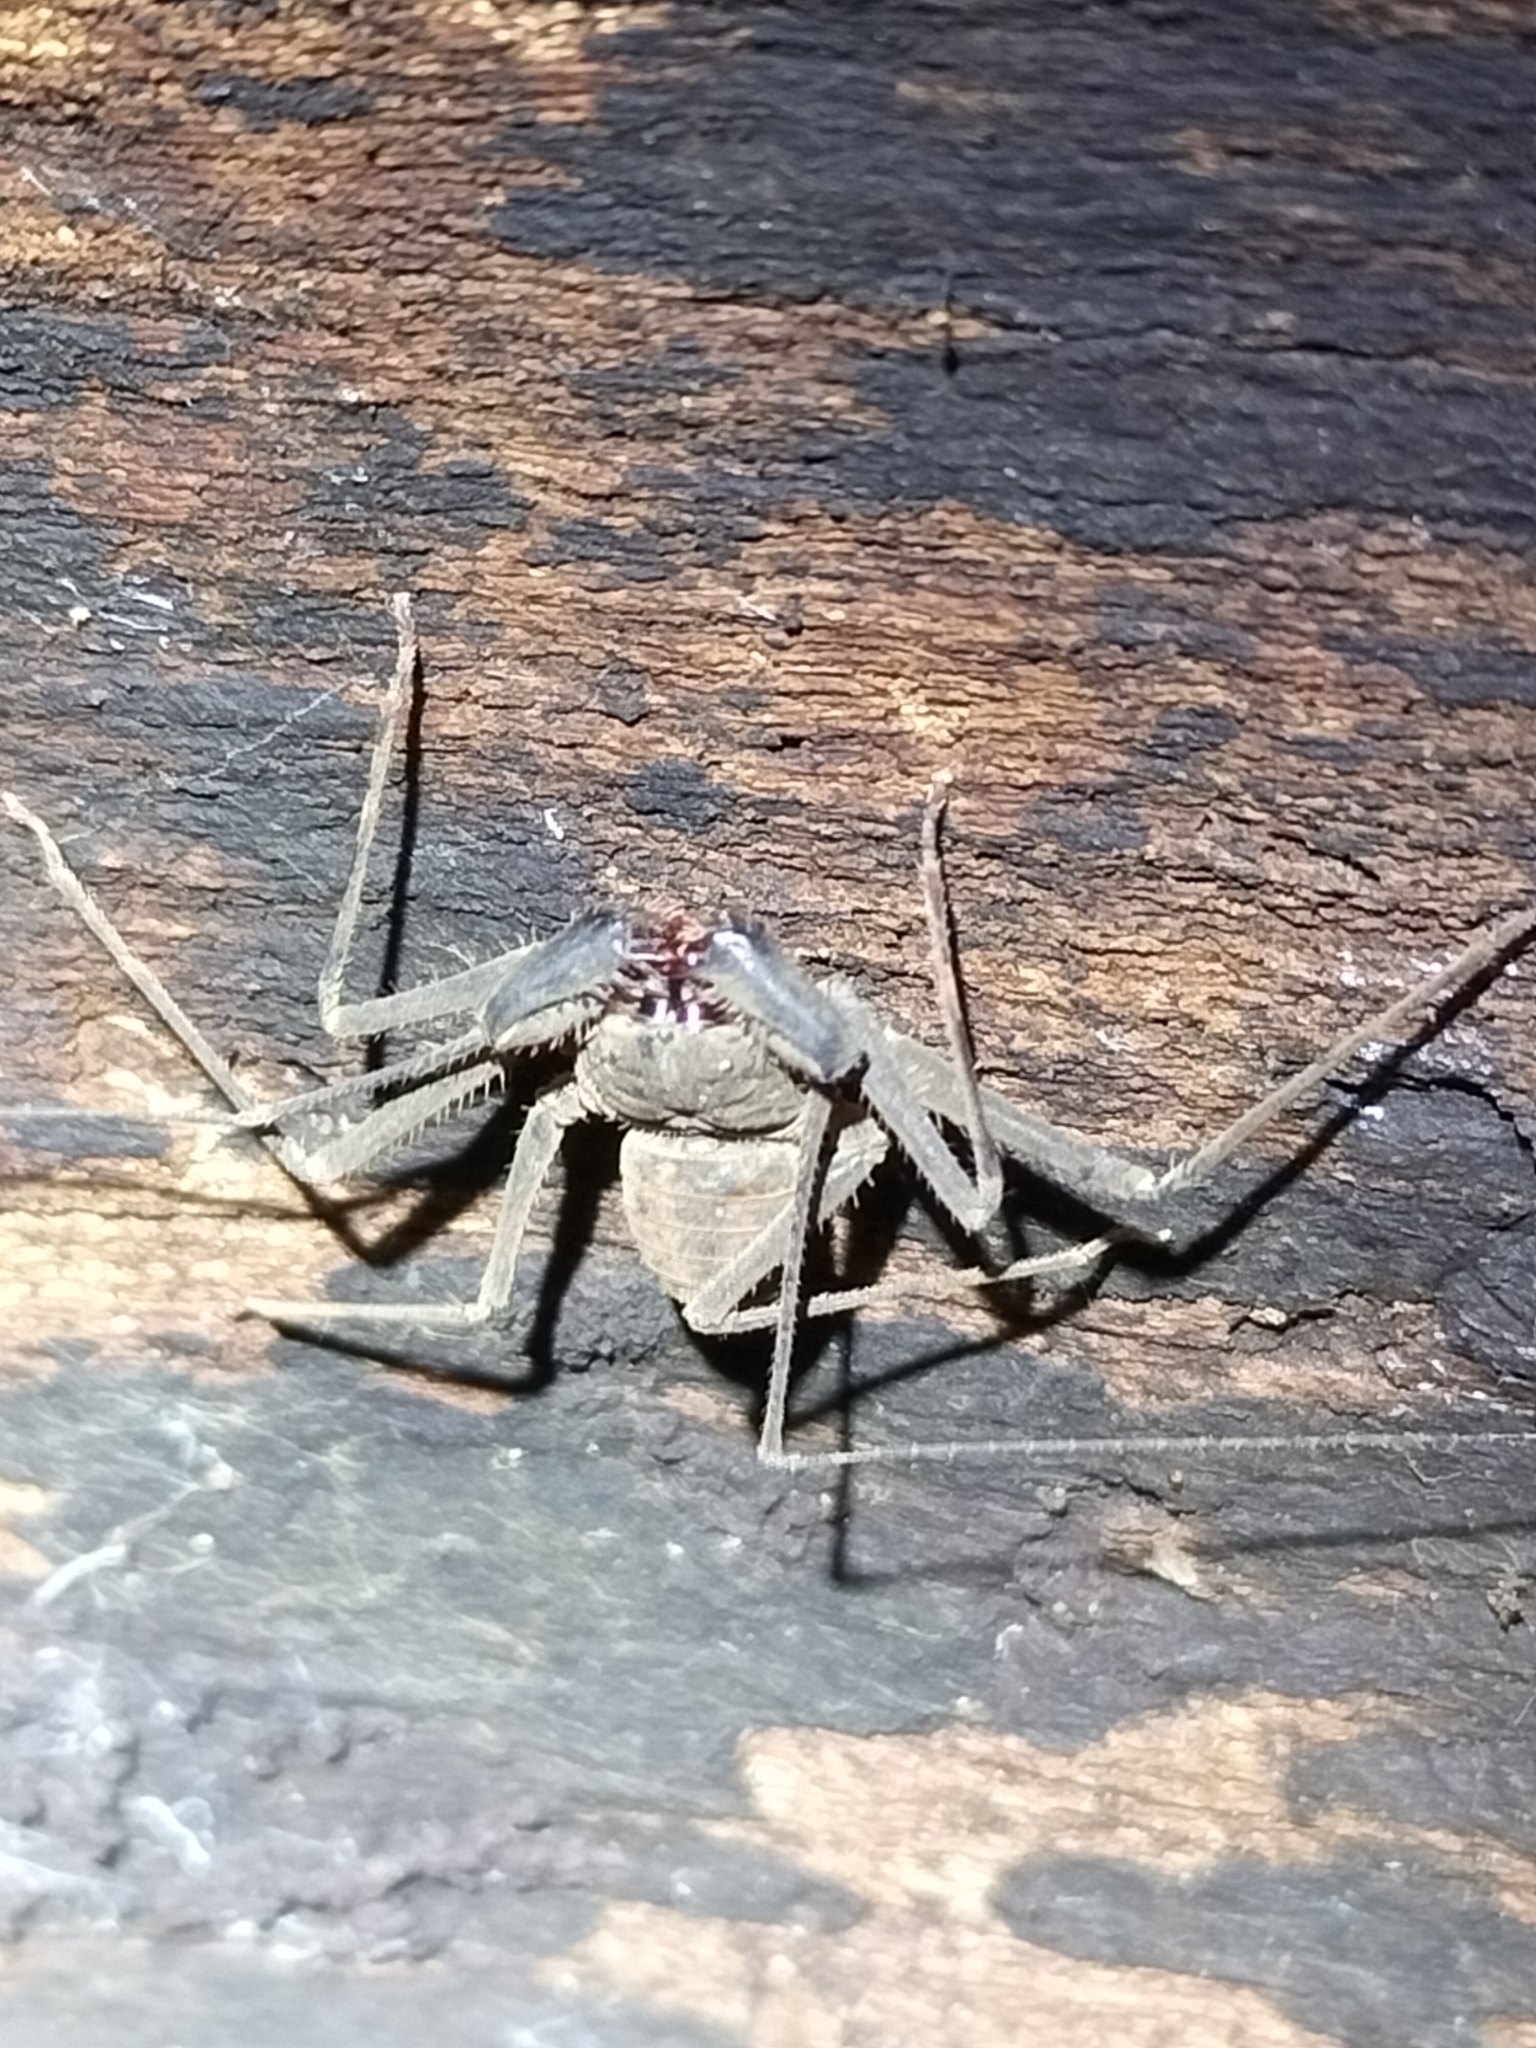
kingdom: Animalia
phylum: Arthropoda
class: Arachnida
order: Amblypygi
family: Charinidae
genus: Charinus
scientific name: Charinus pescotti
